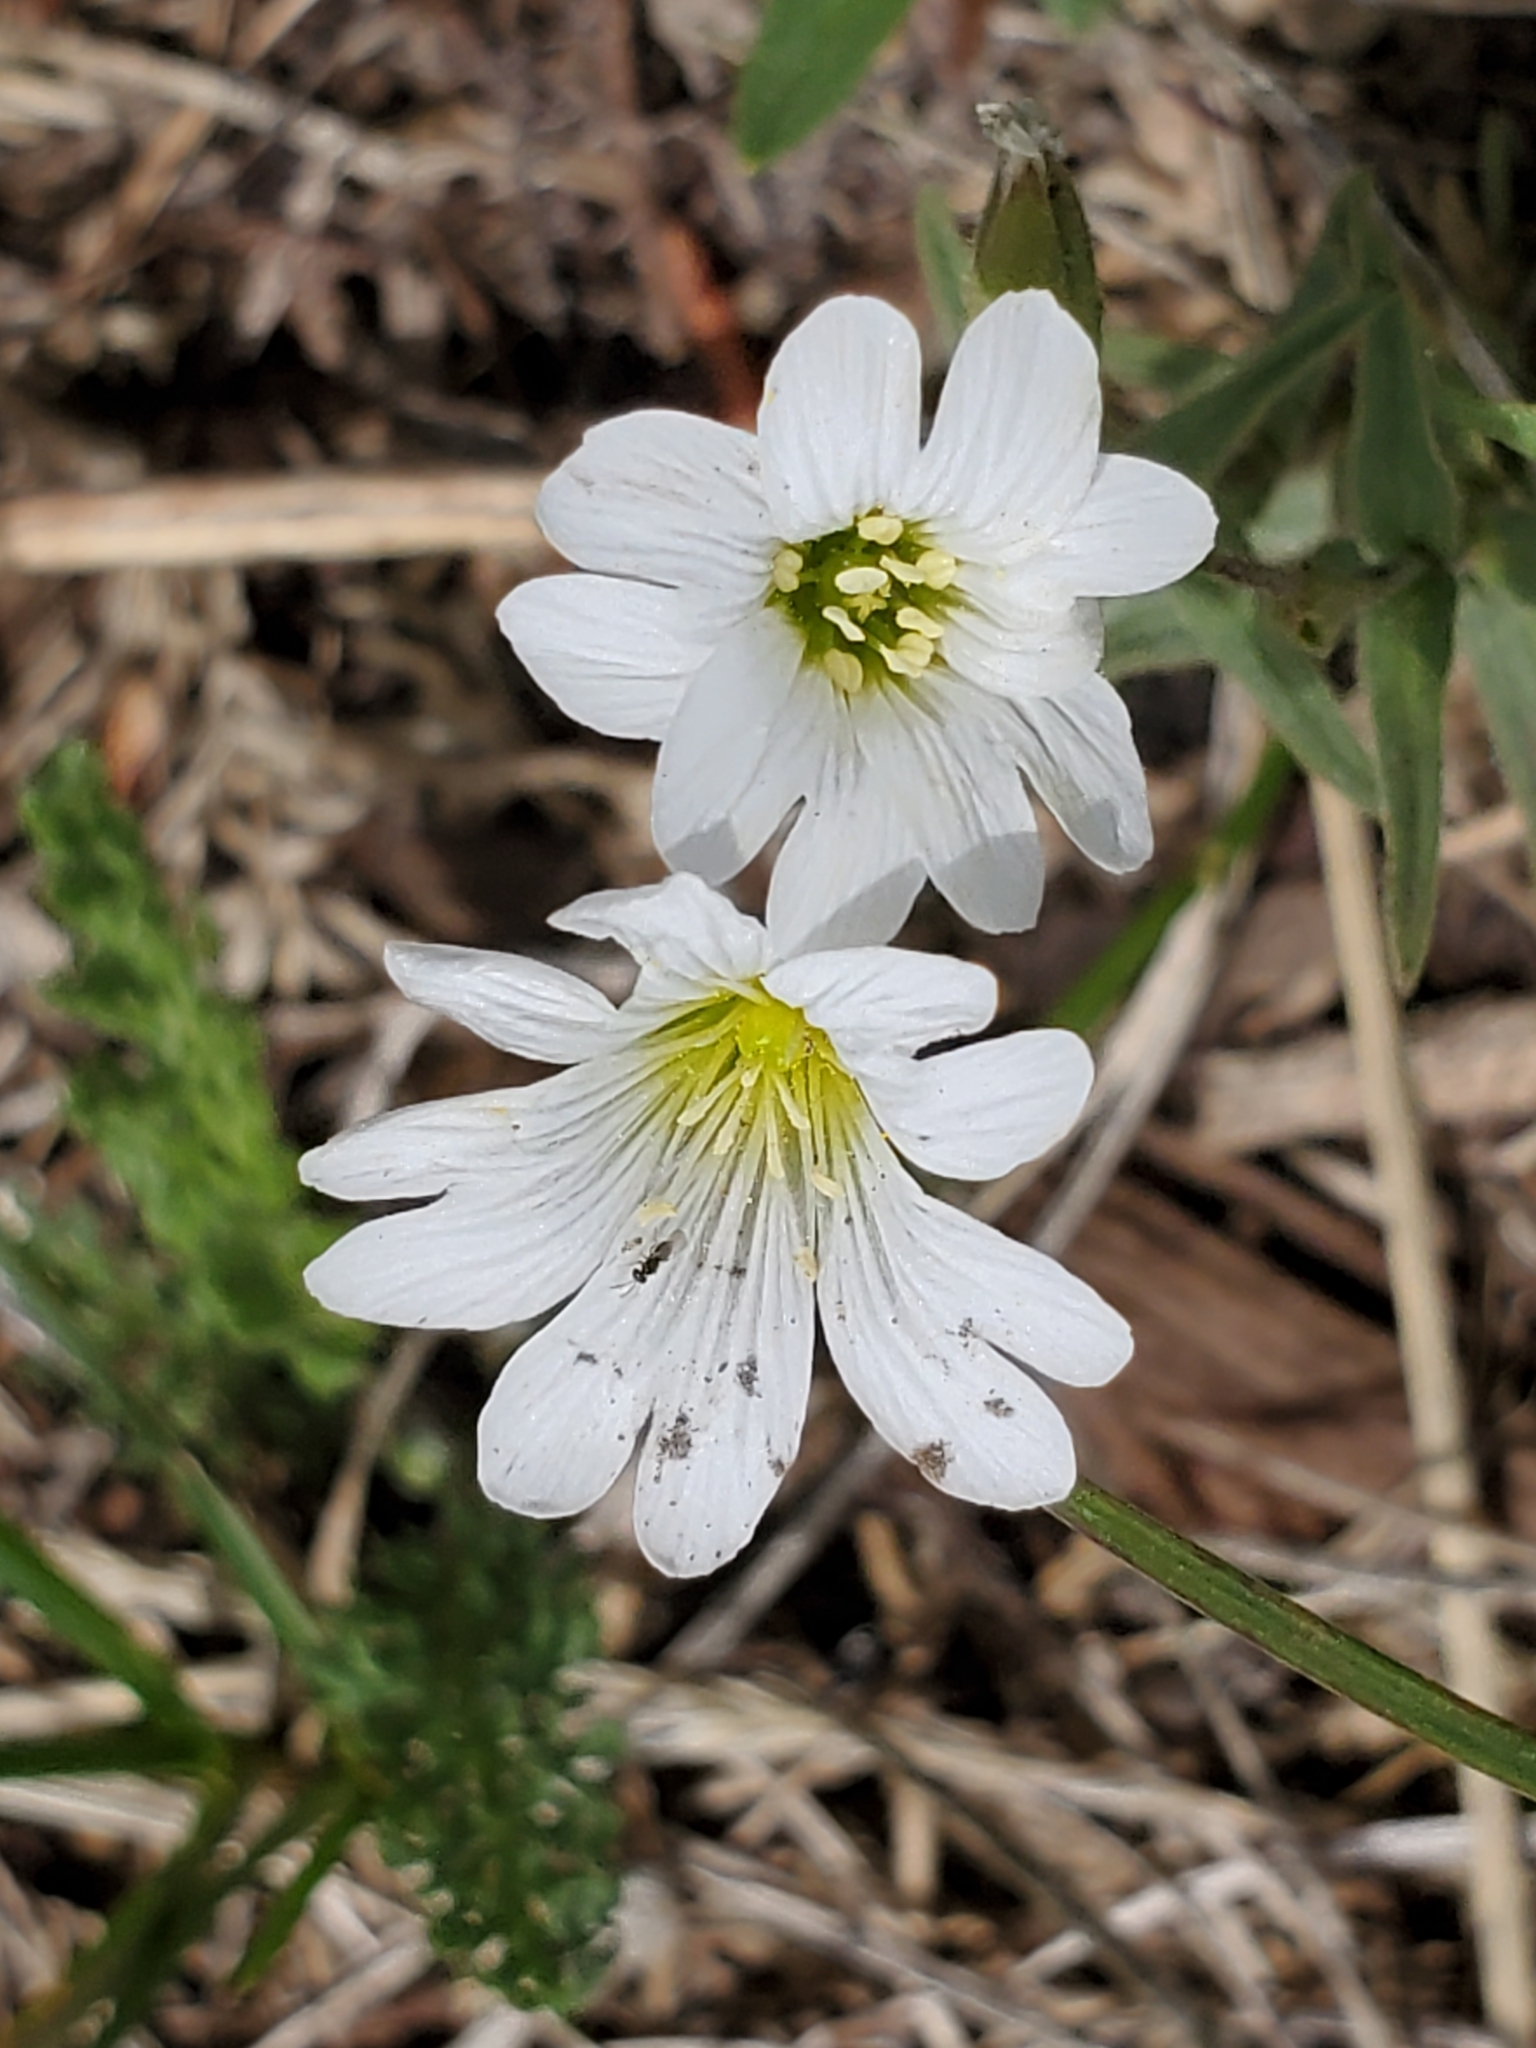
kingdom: Plantae
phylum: Tracheophyta
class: Magnoliopsida
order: Caryophyllales
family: Caryophyllaceae
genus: Cerastium
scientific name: Cerastium arvense
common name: Field mouse-ear
